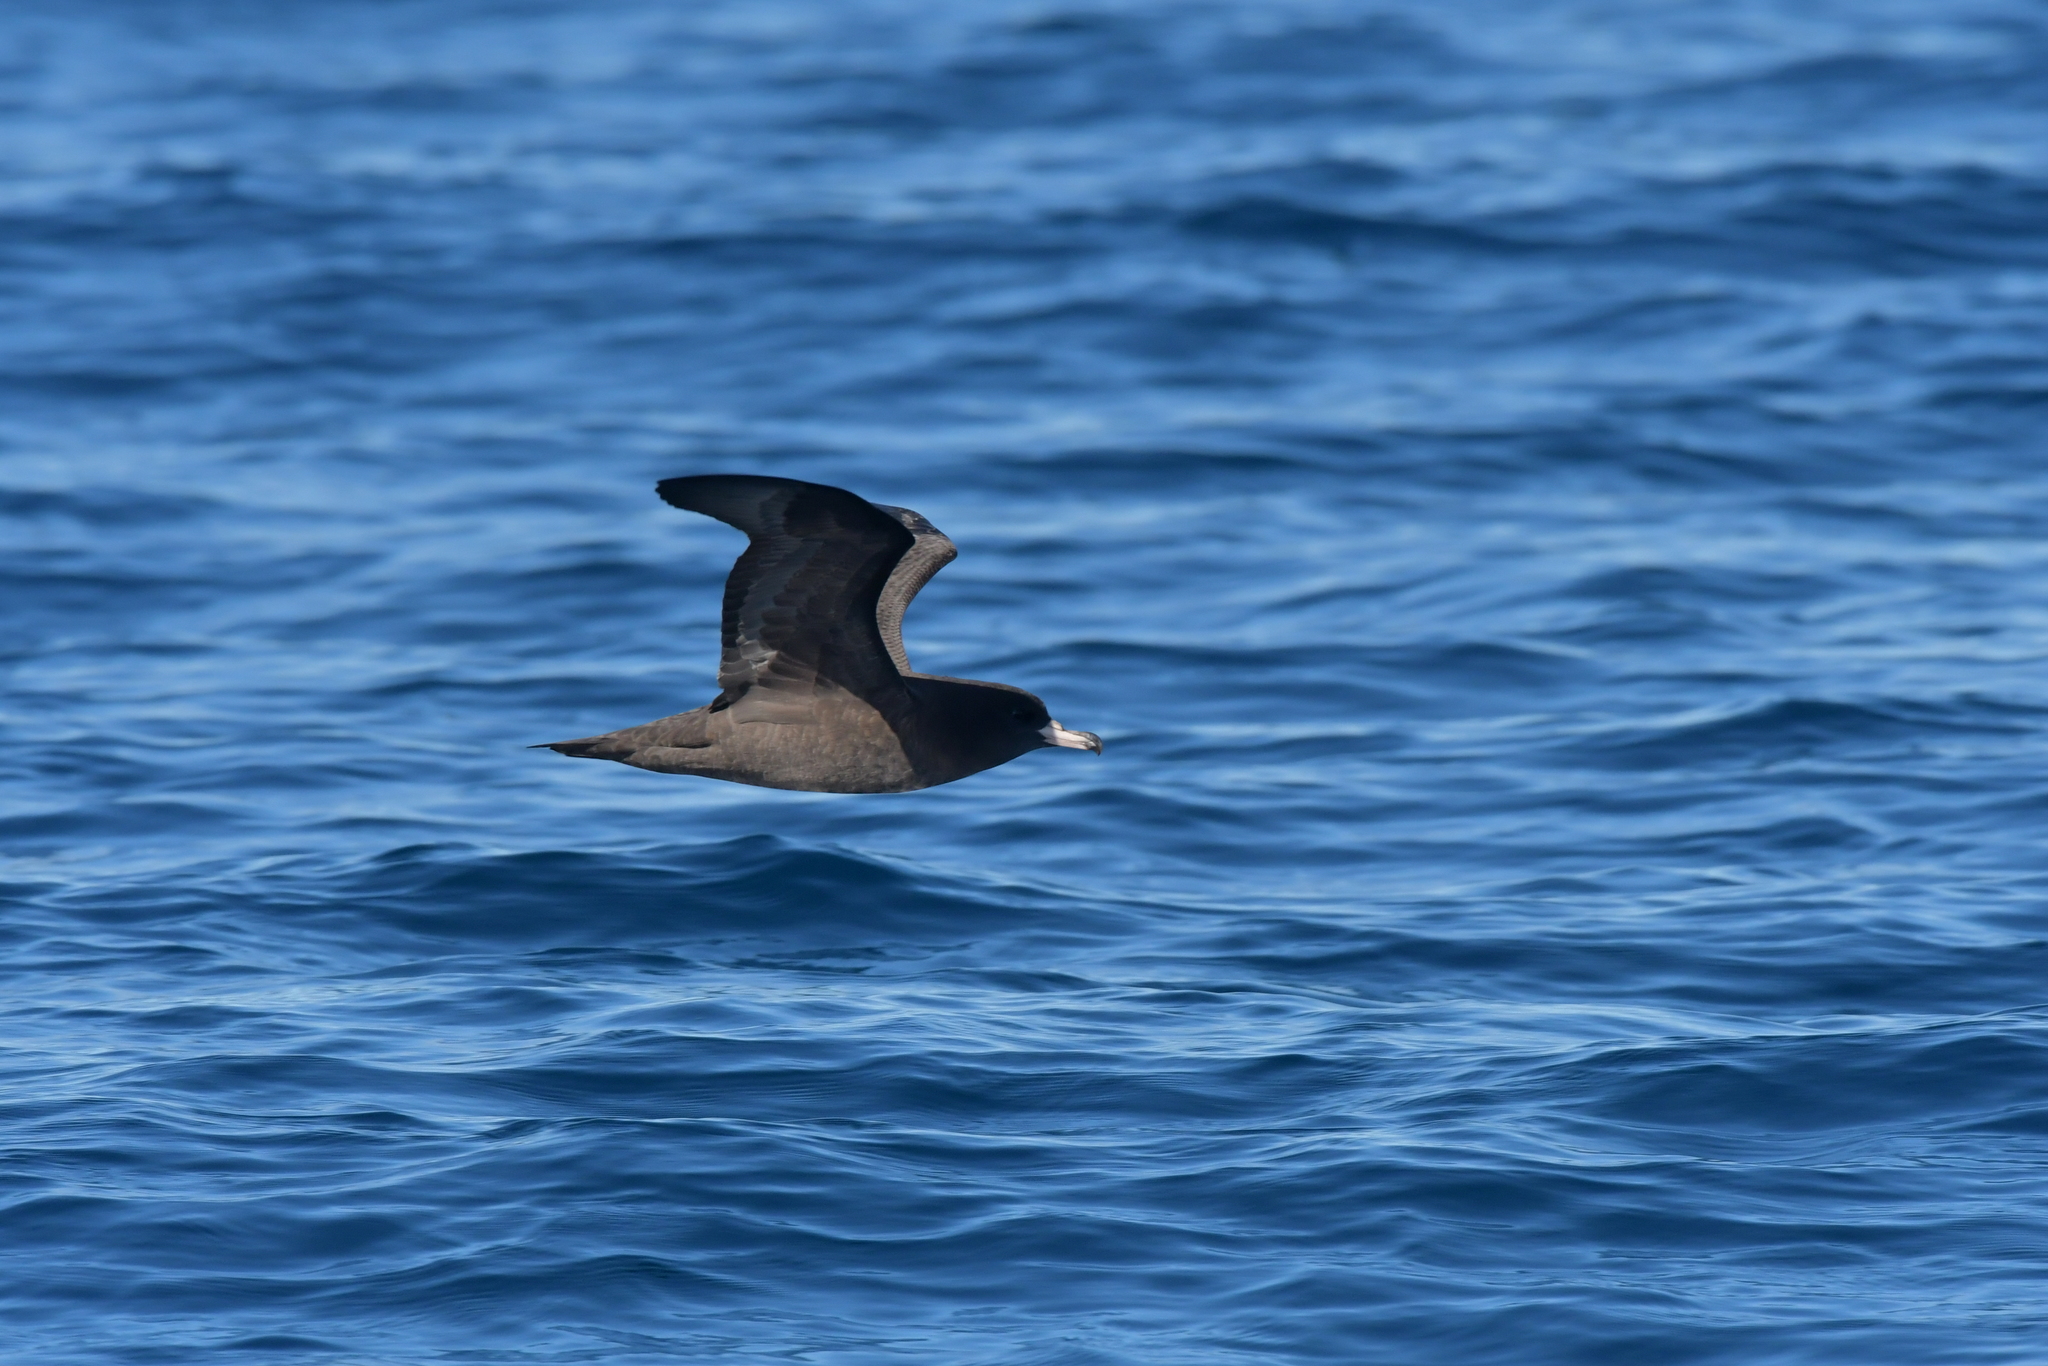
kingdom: Animalia
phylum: Chordata
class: Aves
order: Procellariiformes
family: Procellariidae
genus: Puffinus
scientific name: Puffinus carneipes
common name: Flesh-footed shearwater
